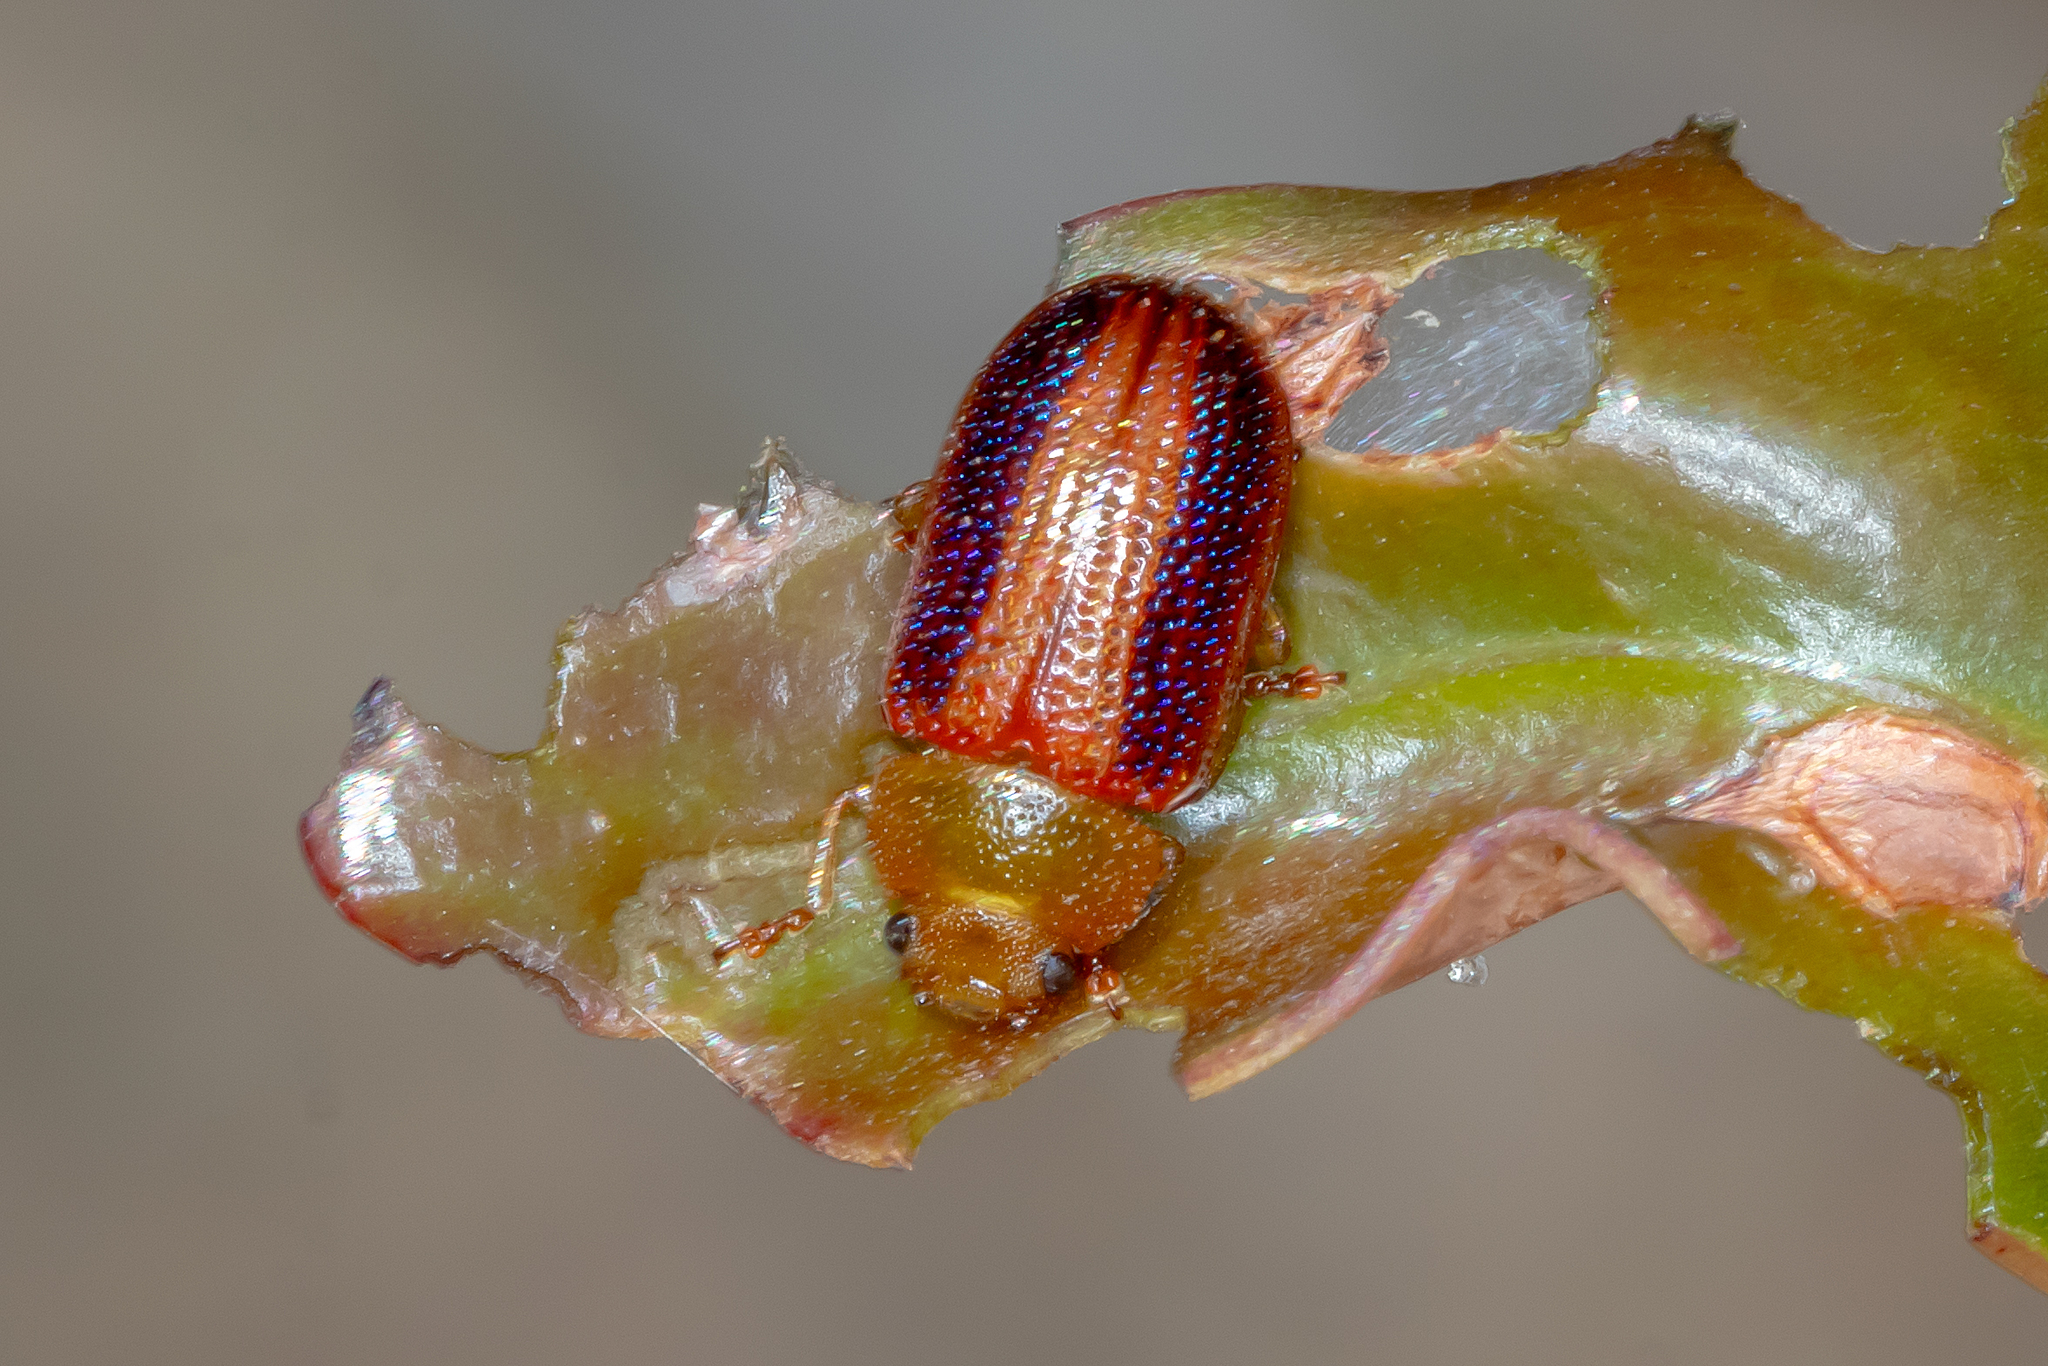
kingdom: Animalia
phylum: Arthropoda
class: Insecta
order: Coleoptera
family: Chrysomelidae
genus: Calomela
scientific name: Calomela
